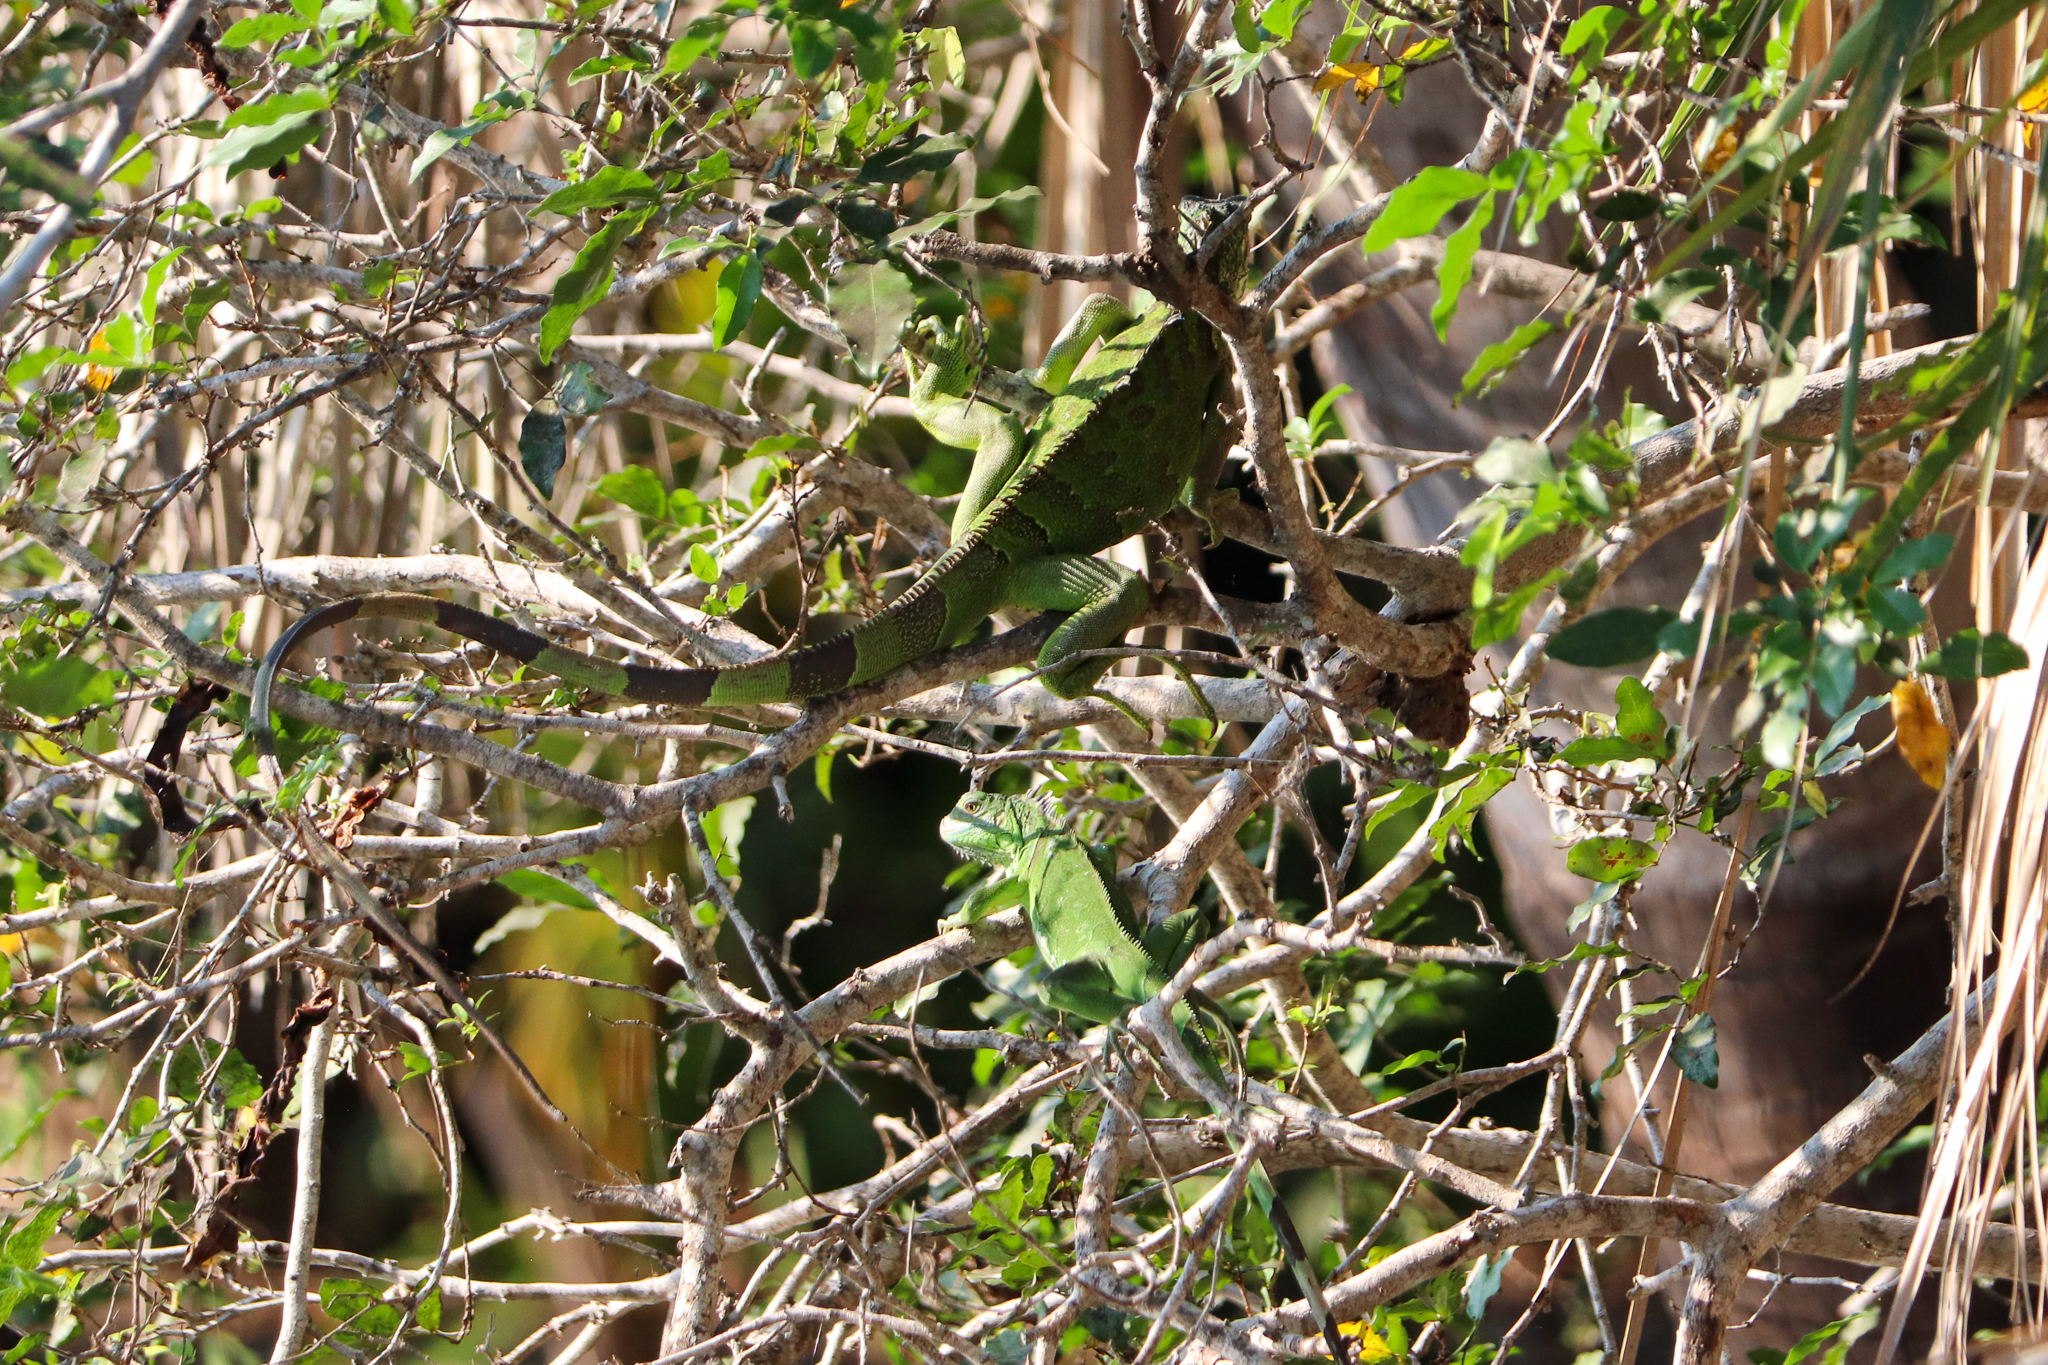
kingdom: Animalia
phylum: Chordata
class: Squamata
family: Iguanidae
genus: Iguana
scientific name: Iguana iguana
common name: Green iguana
